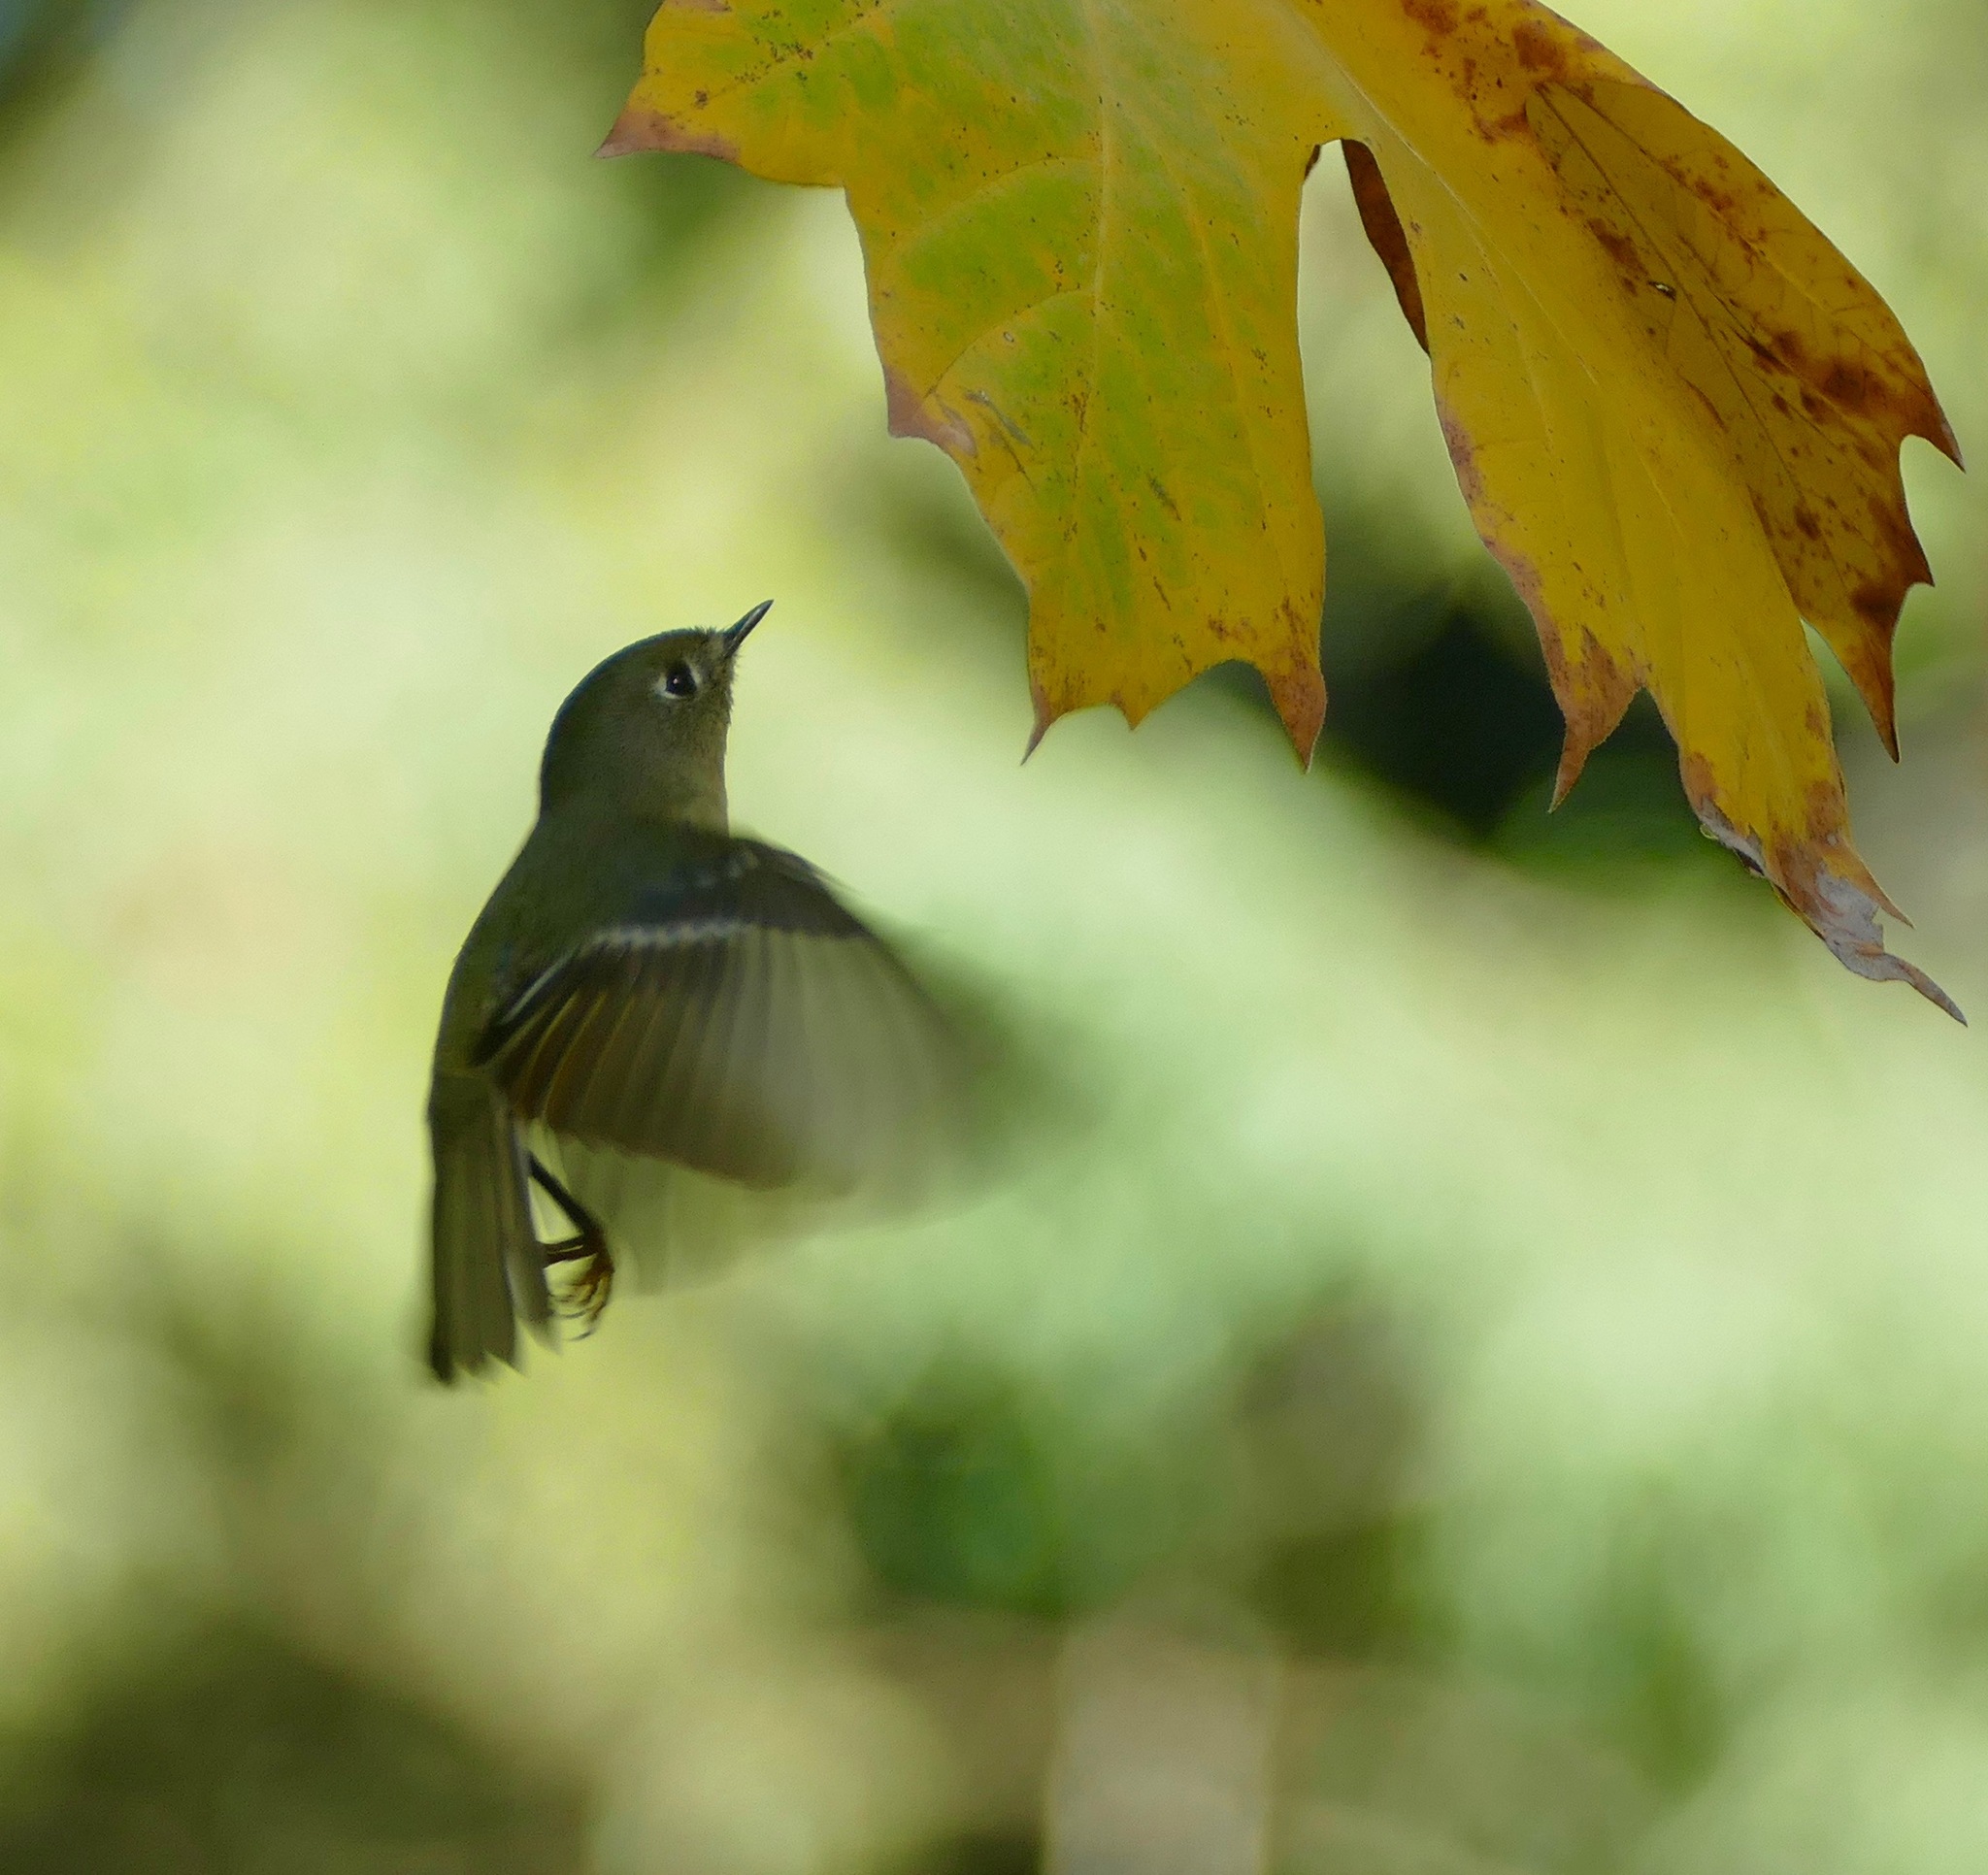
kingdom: Animalia
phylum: Chordata
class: Aves
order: Passeriformes
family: Regulidae
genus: Regulus
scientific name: Regulus calendula
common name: Ruby-crowned kinglet
